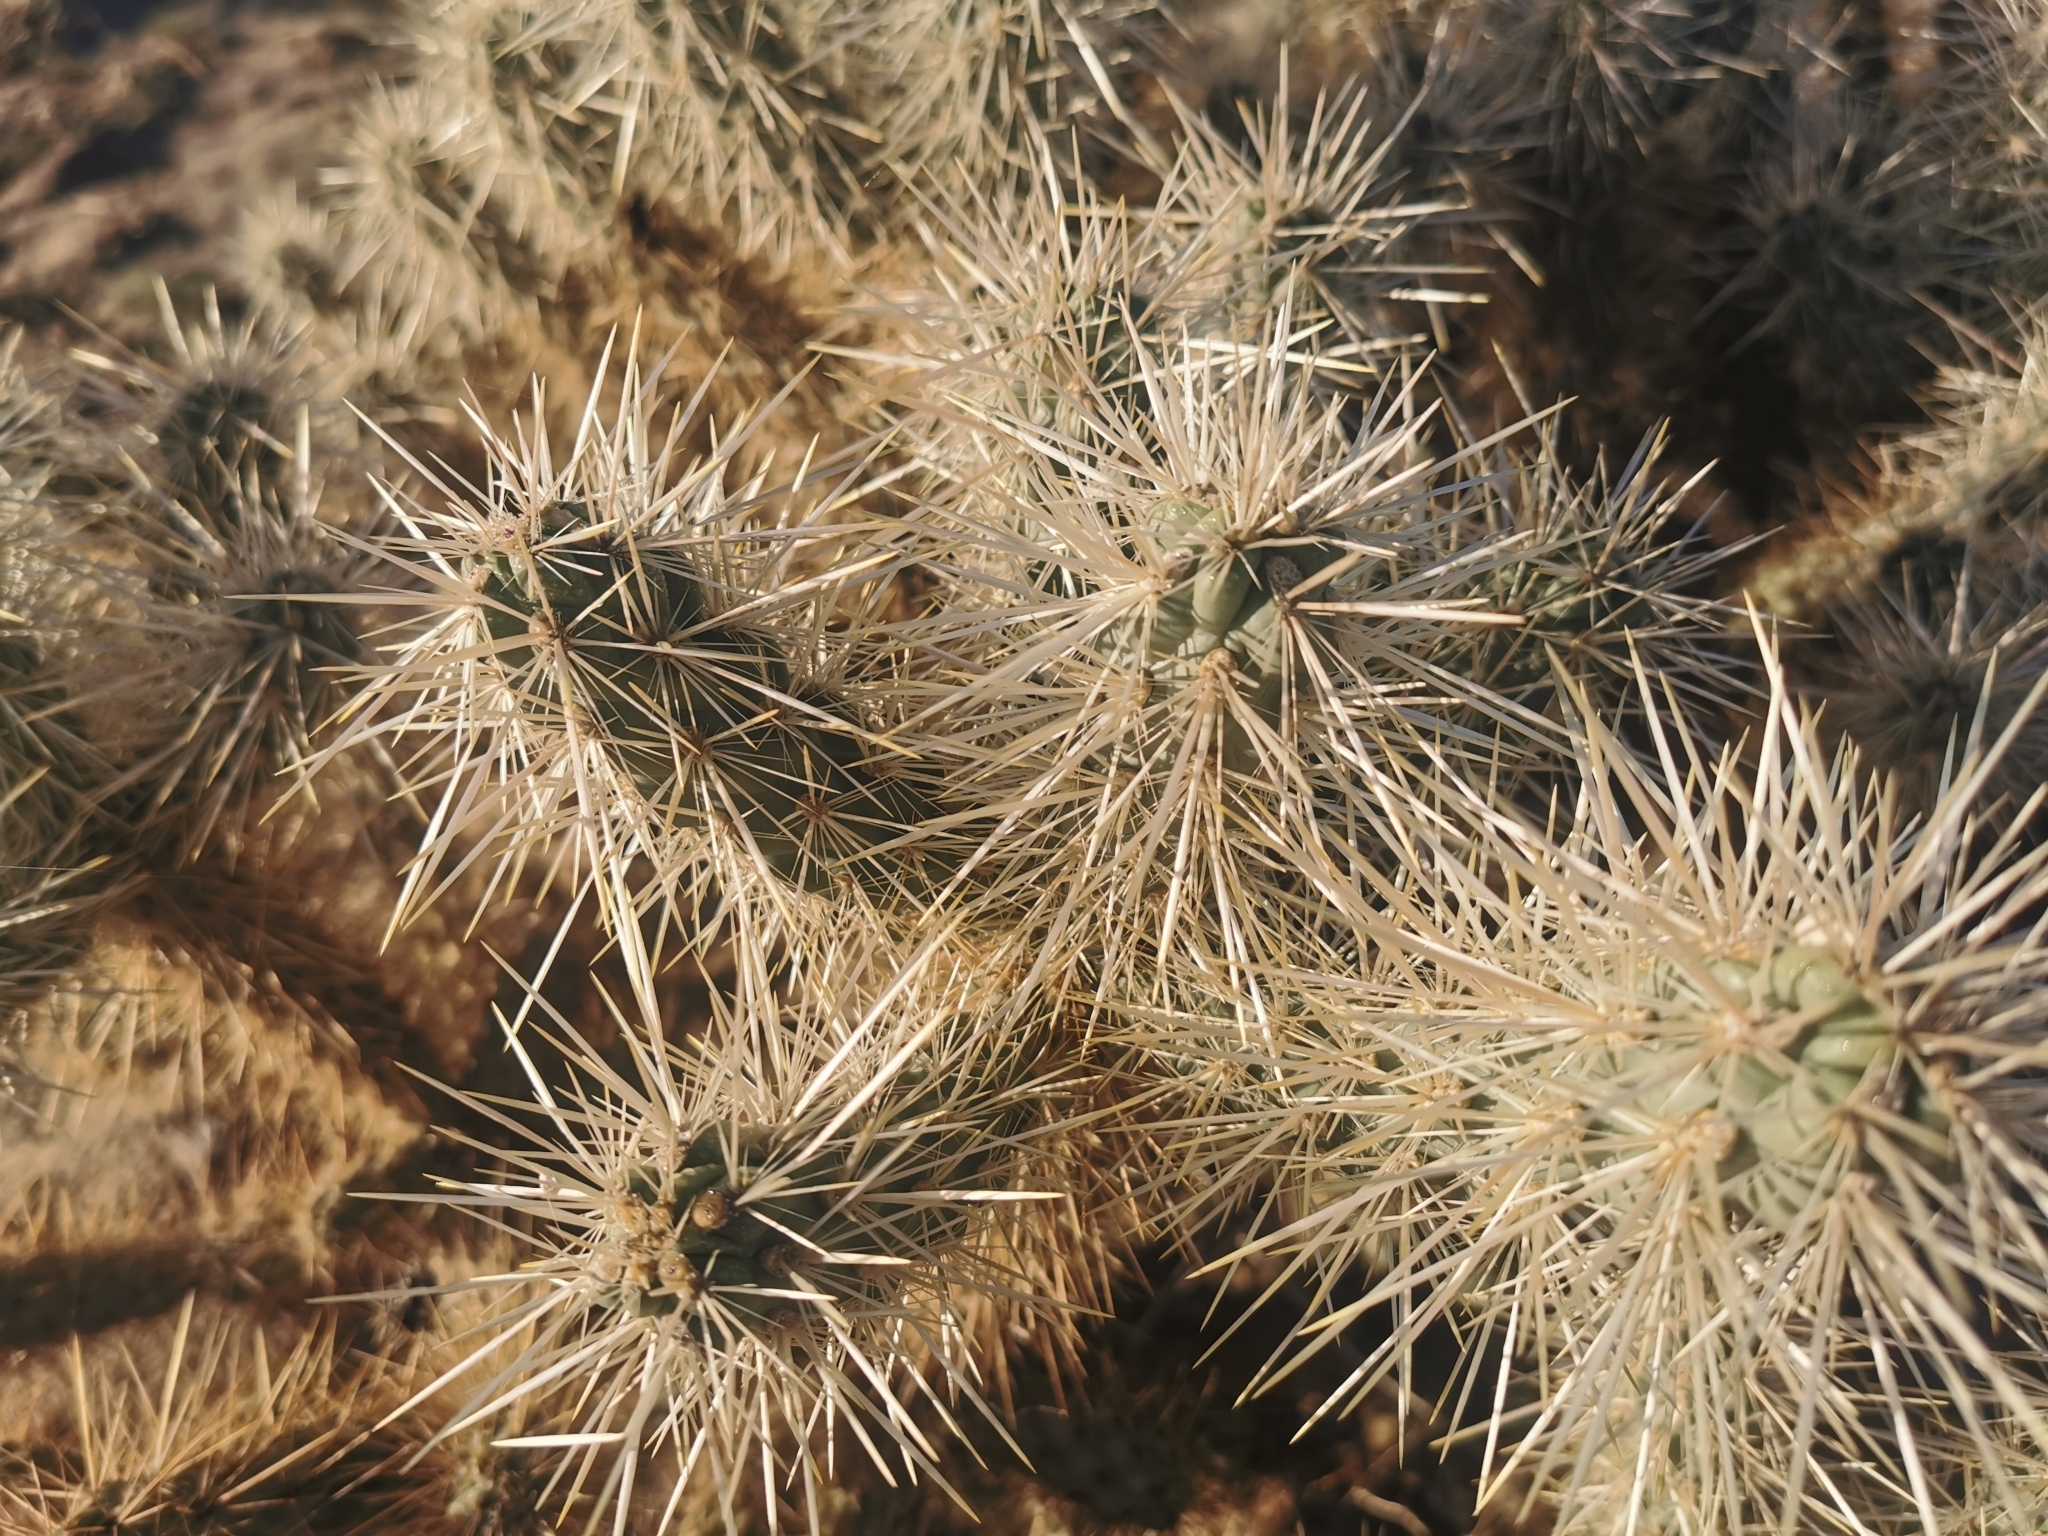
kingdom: Plantae
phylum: Tracheophyta
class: Magnoliopsida
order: Caryophyllales
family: Cactaceae
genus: Cylindropuntia
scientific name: Cylindropuntia echinocarpa
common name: Ground cholla
